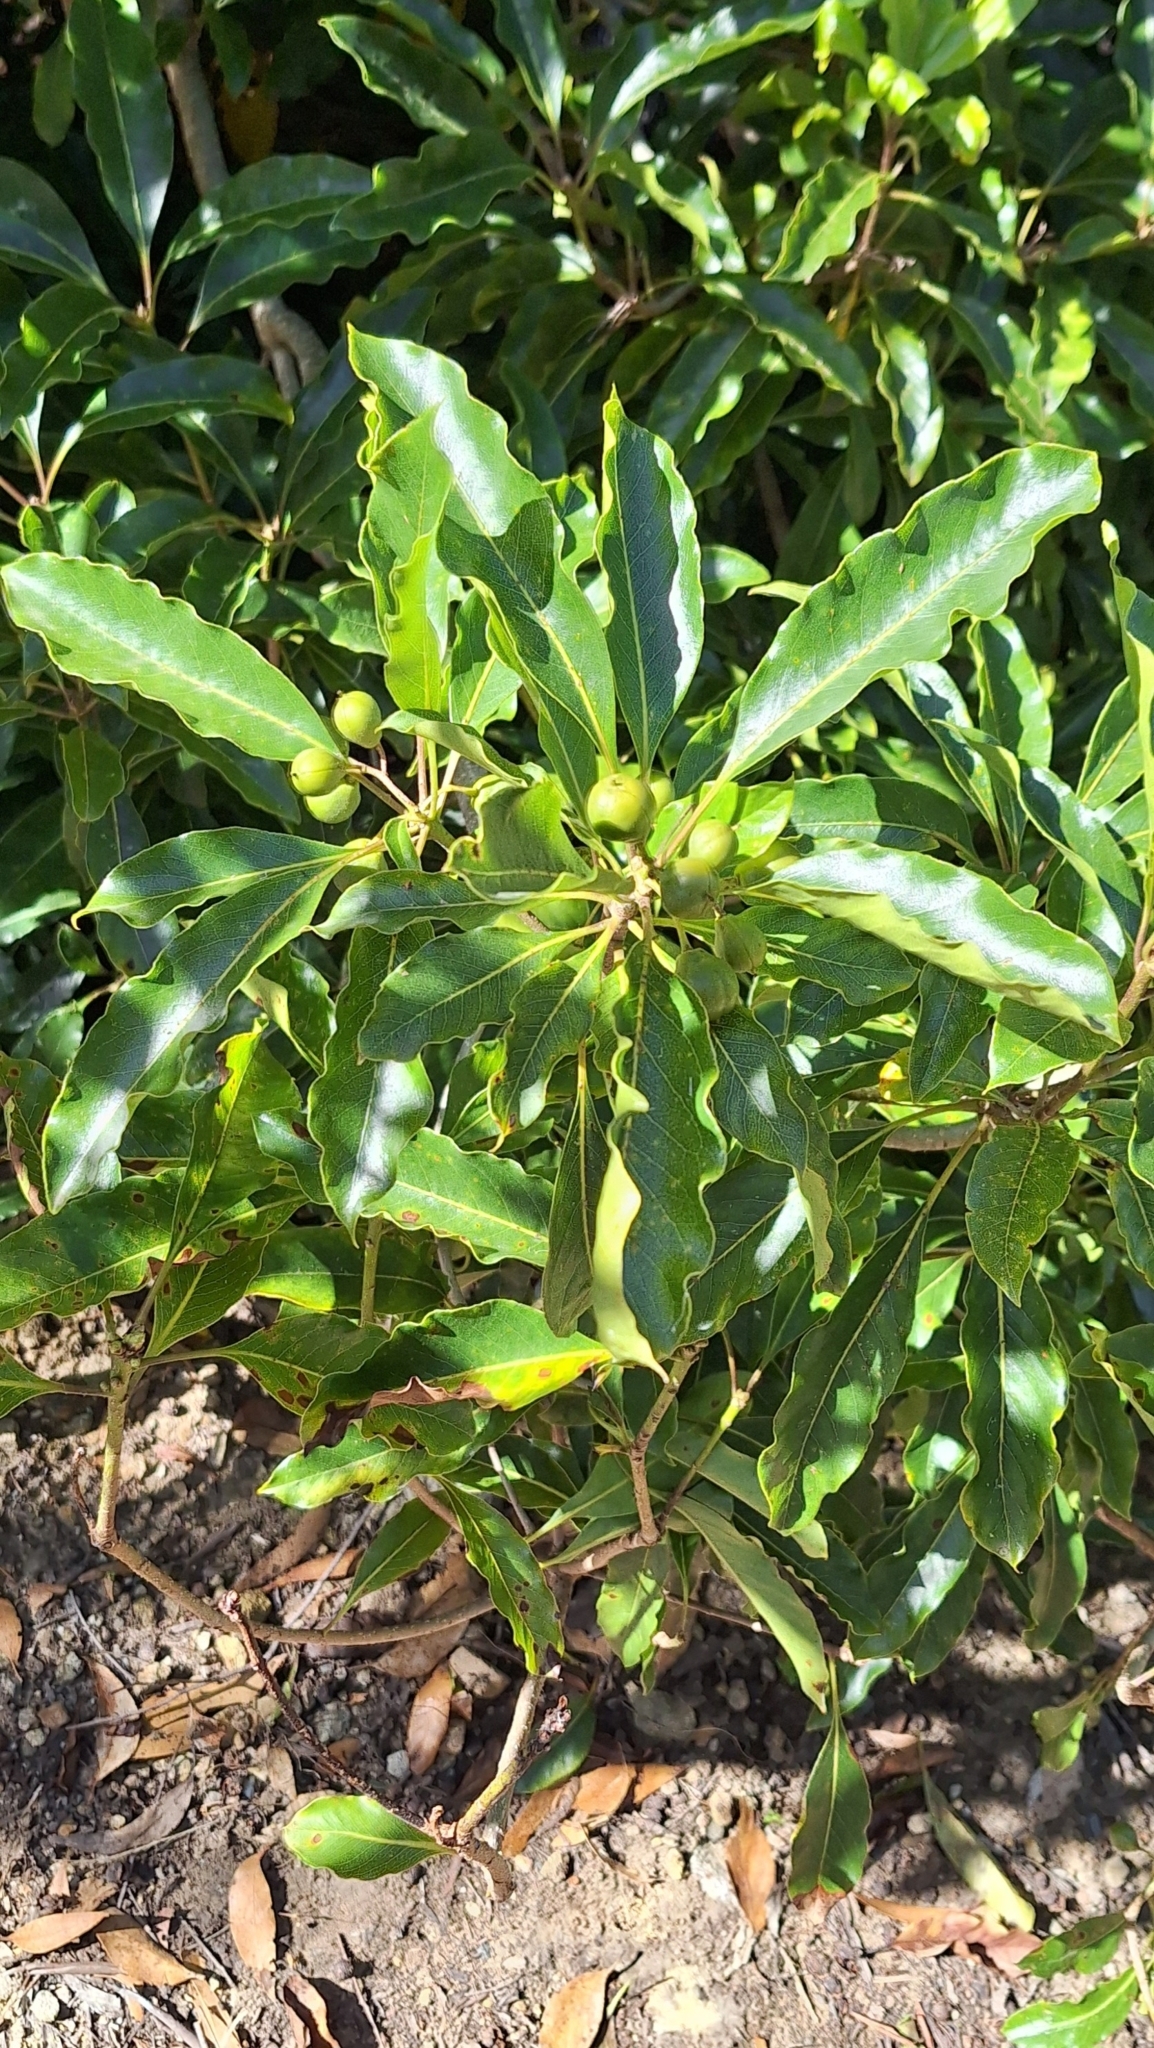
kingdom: Plantae
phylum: Tracheophyta
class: Magnoliopsida
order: Apiales
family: Pittosporaceae
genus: Pittosporum
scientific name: Pittosporum undulatum
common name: Australian cheesewood
